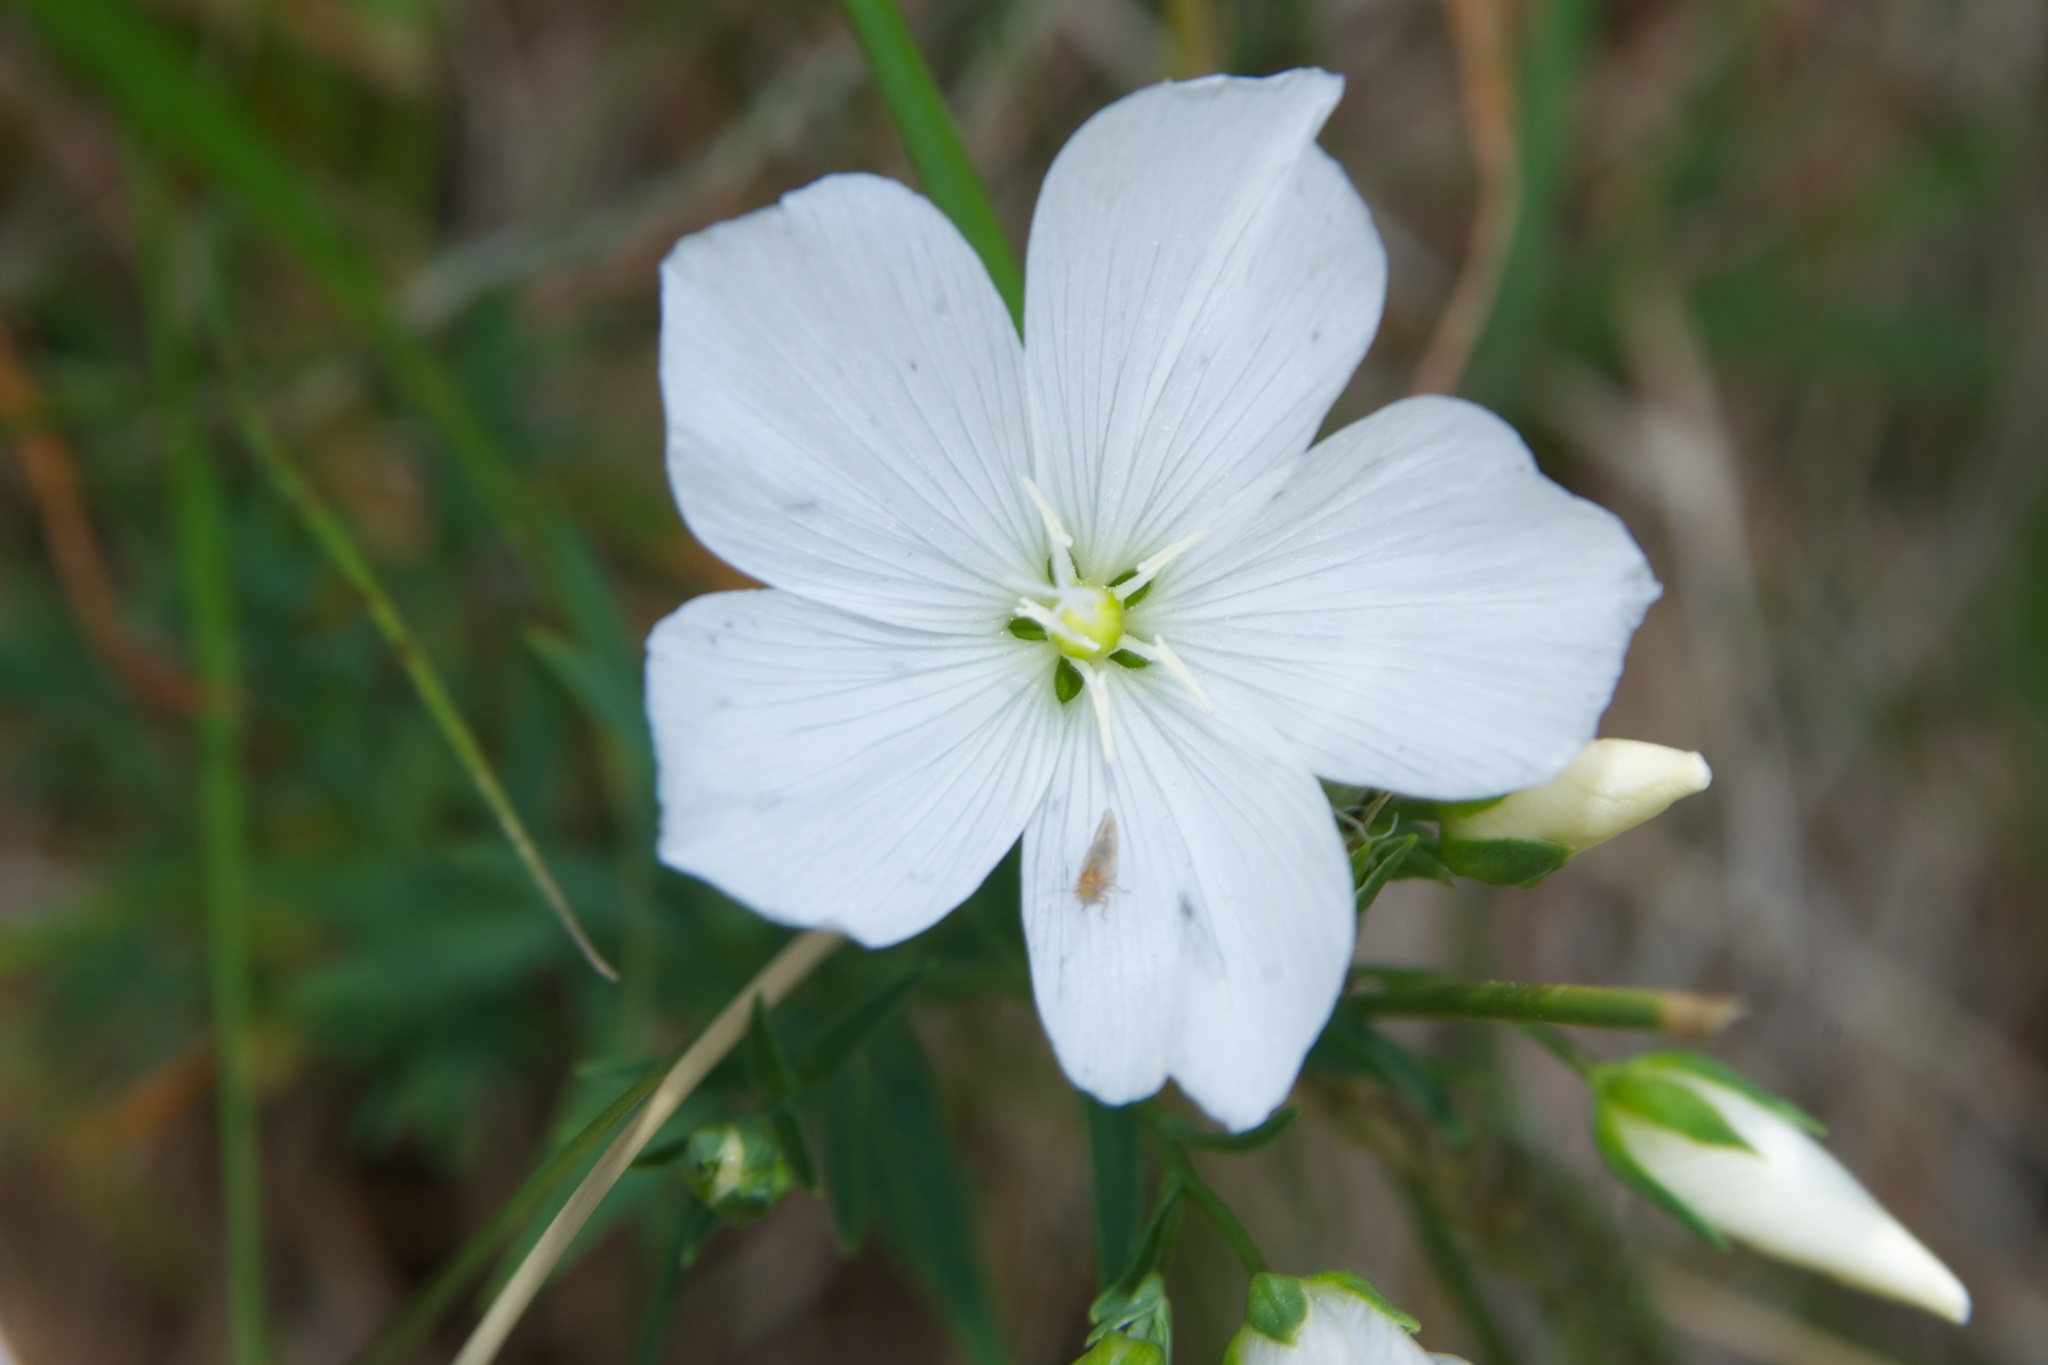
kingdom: Plantae
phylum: Tracheophyta
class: Magnoliopsida
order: Malpighiales
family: Linaceae
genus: Linum
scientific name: Linum monogynum
